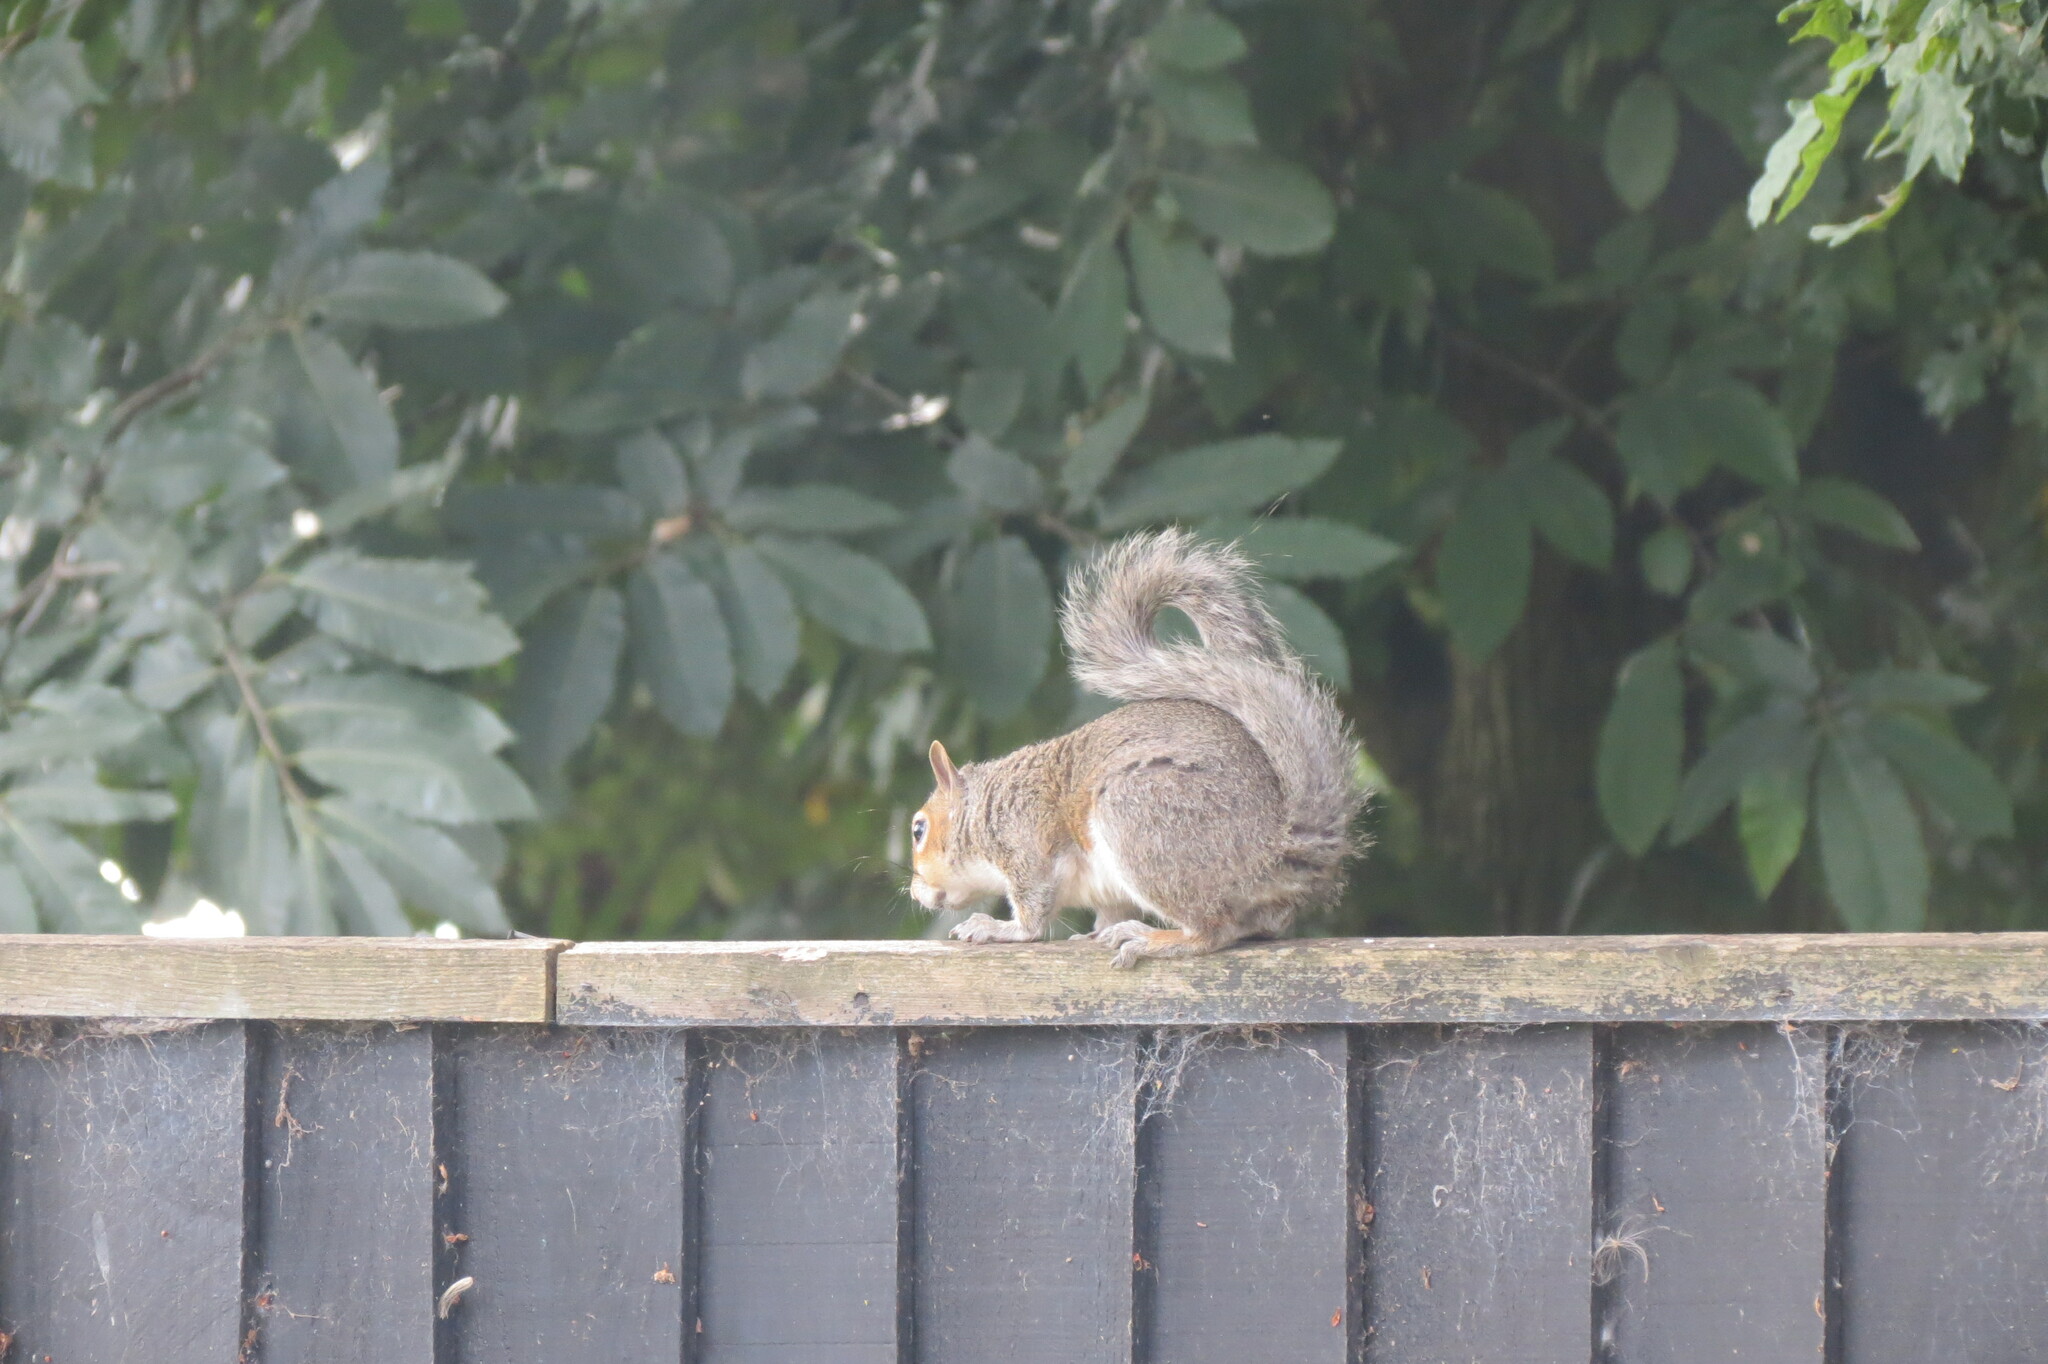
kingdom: Animalia
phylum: Chordata
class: Mammalia
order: Rodentia
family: Sciuridae
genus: Sciurus
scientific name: Sciurus carolinensis
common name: Eastern gray squirrel
